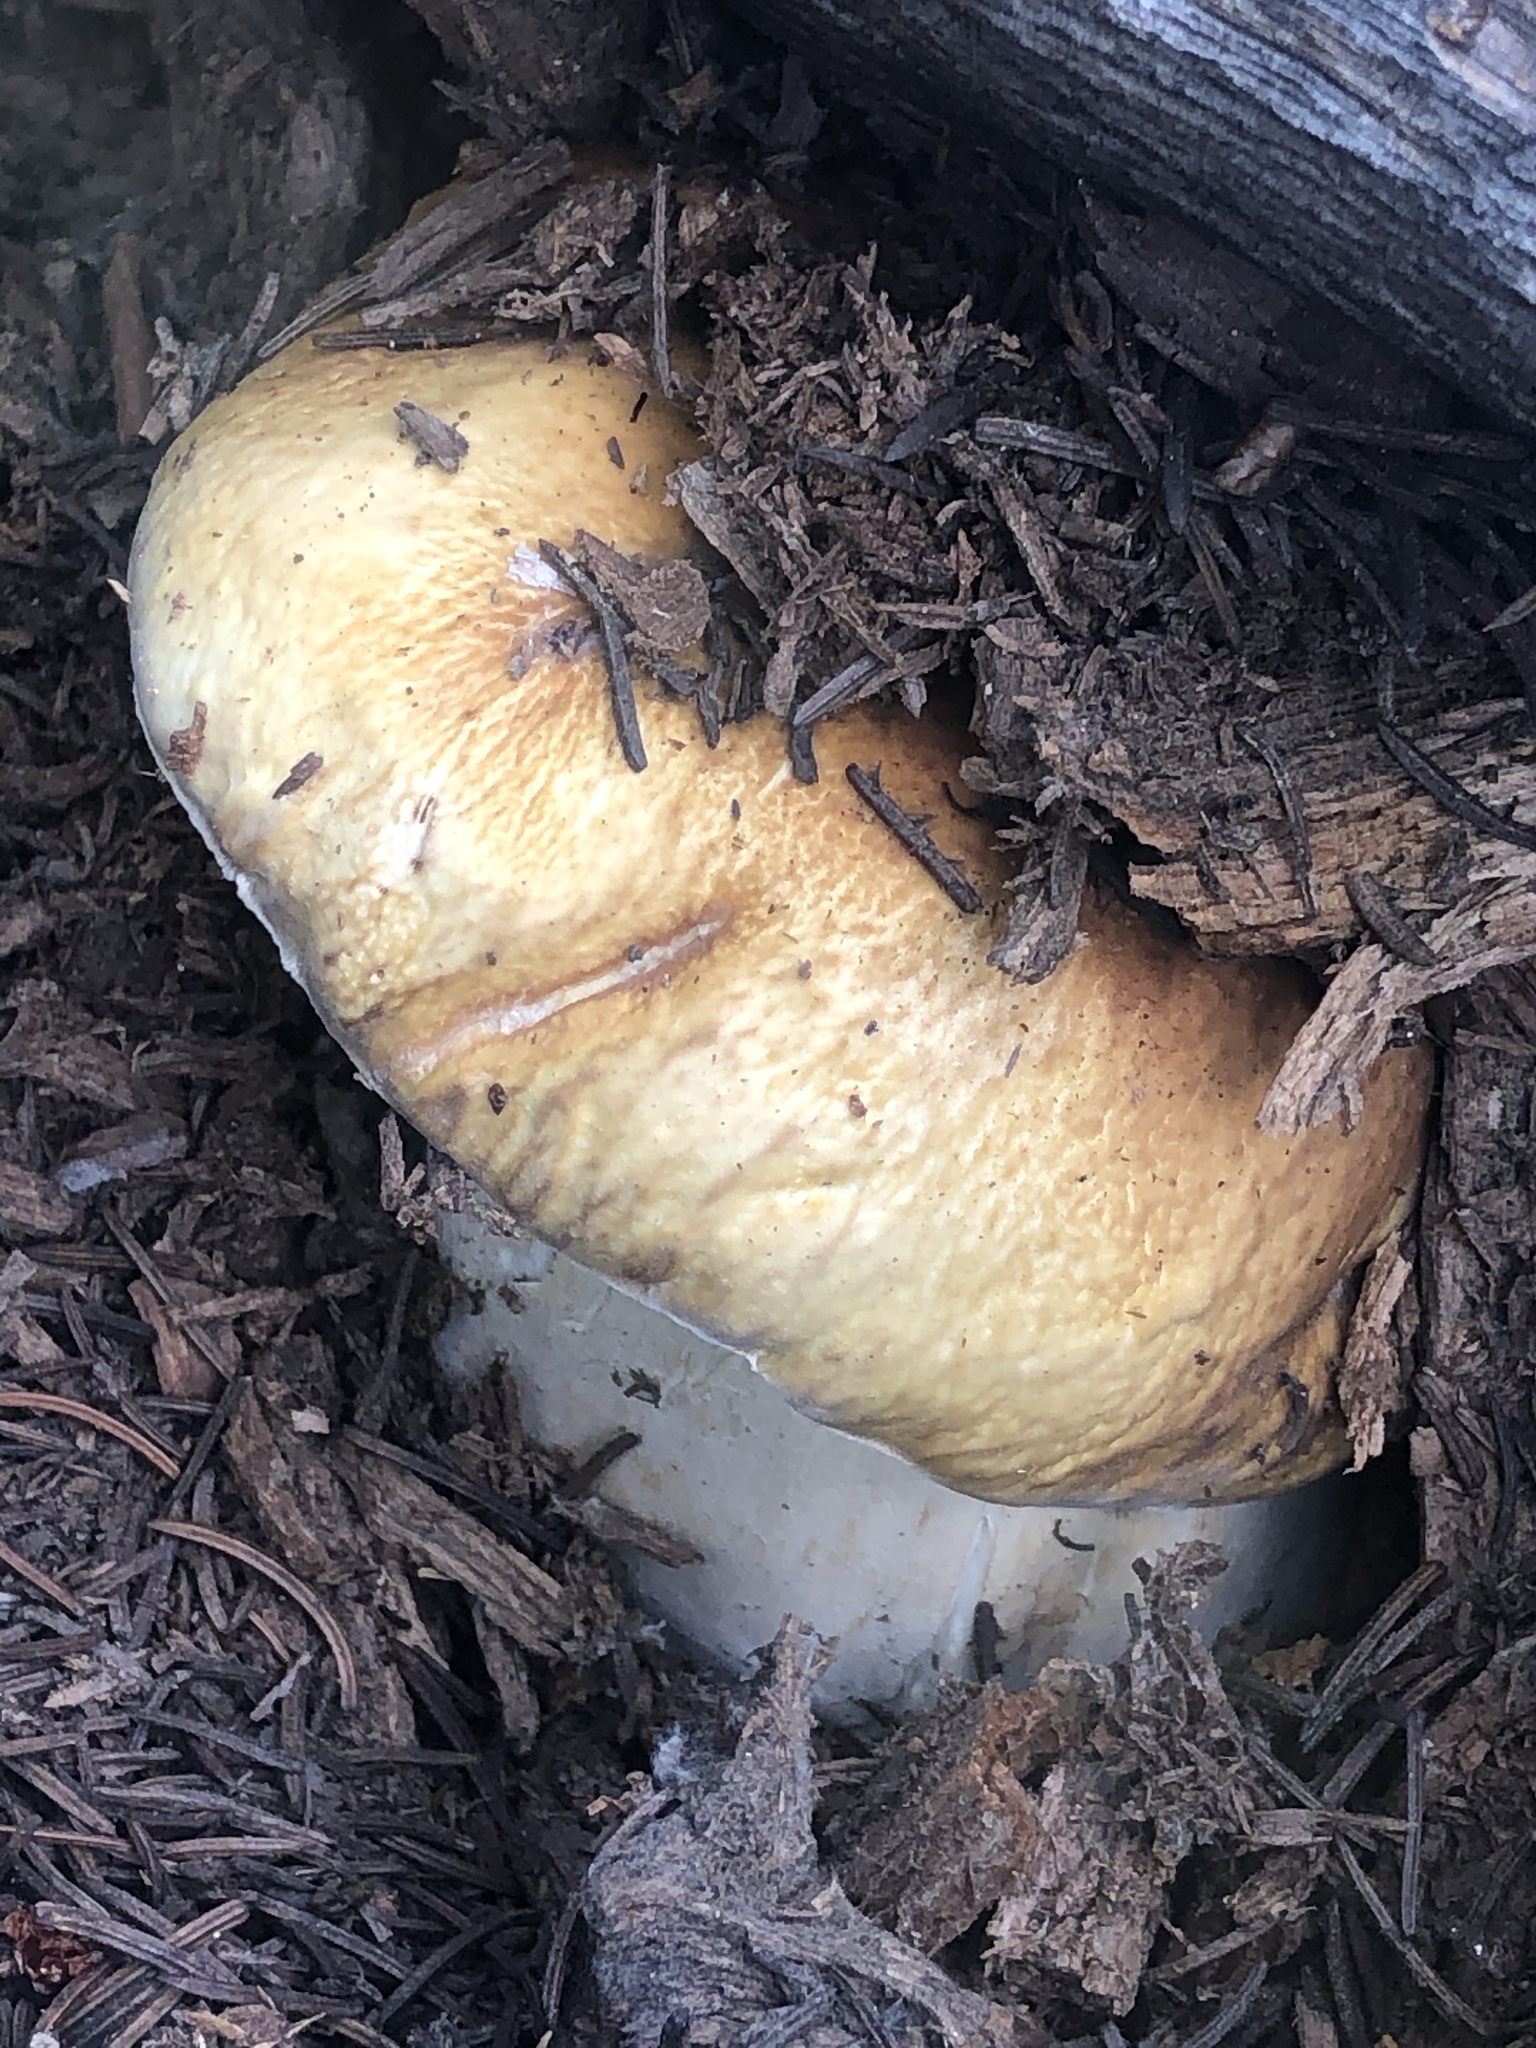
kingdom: Fungi
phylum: Basidiomycota
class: Agaricomycetes
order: Boletales
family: Boletaceae
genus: Boletus
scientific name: Boletus edulis
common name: Cep
